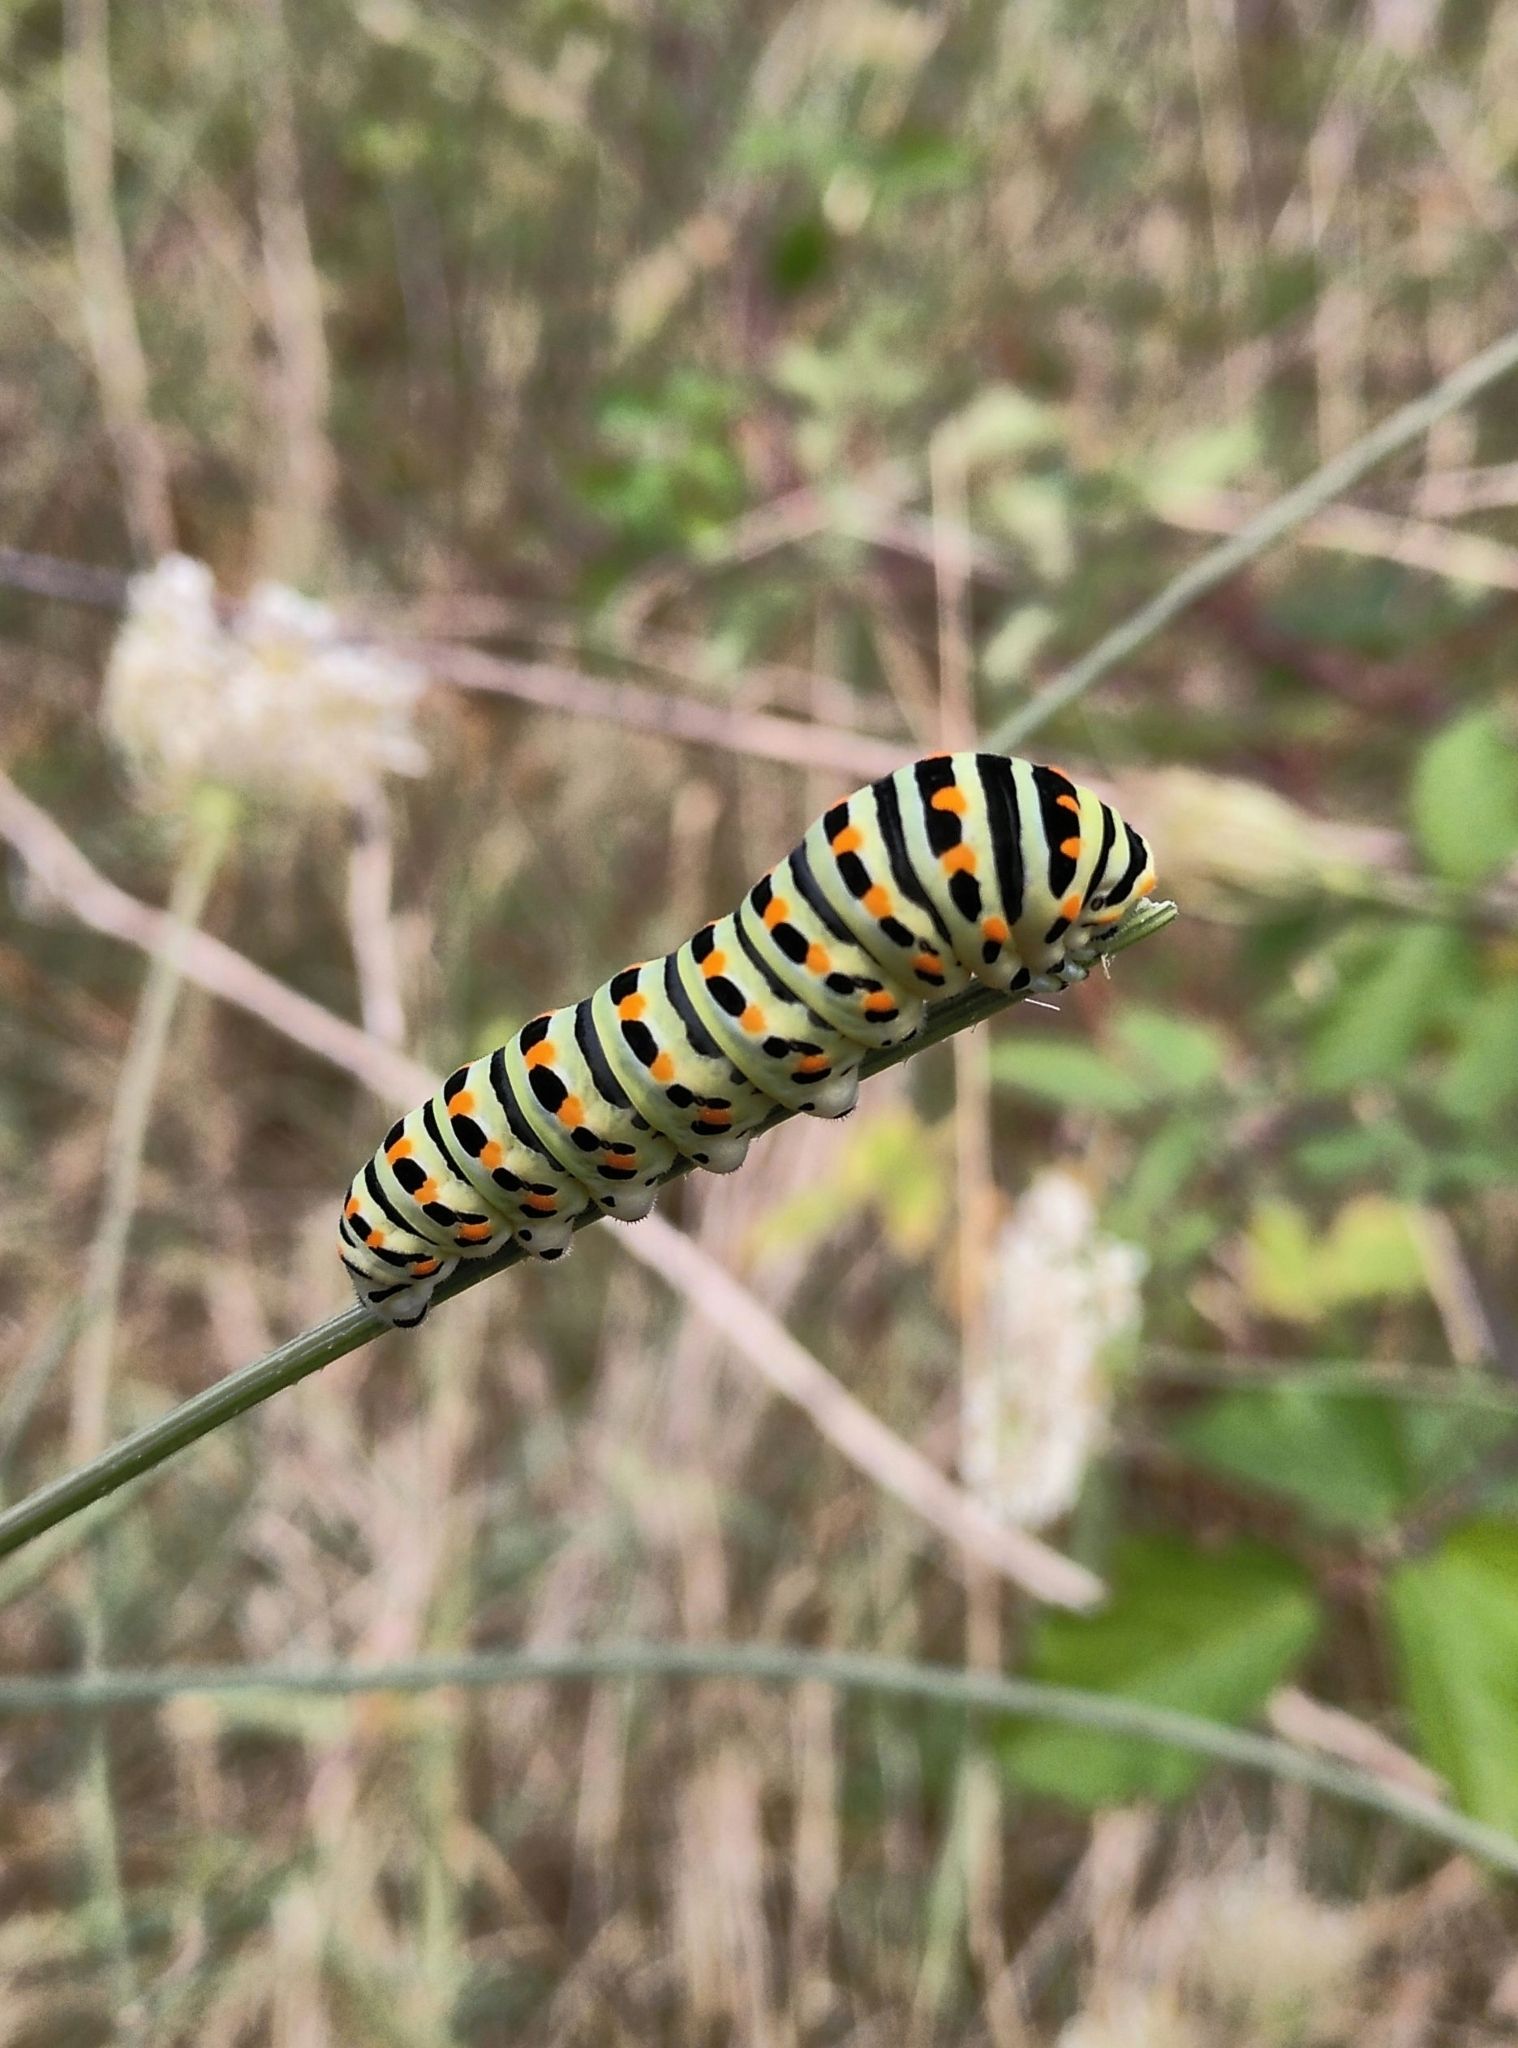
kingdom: Animalia
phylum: Arthropoda
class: Insecta
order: Lepidoptera
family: Papilionidae
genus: Papilio
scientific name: Papilio machaon
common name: Swallowtail
